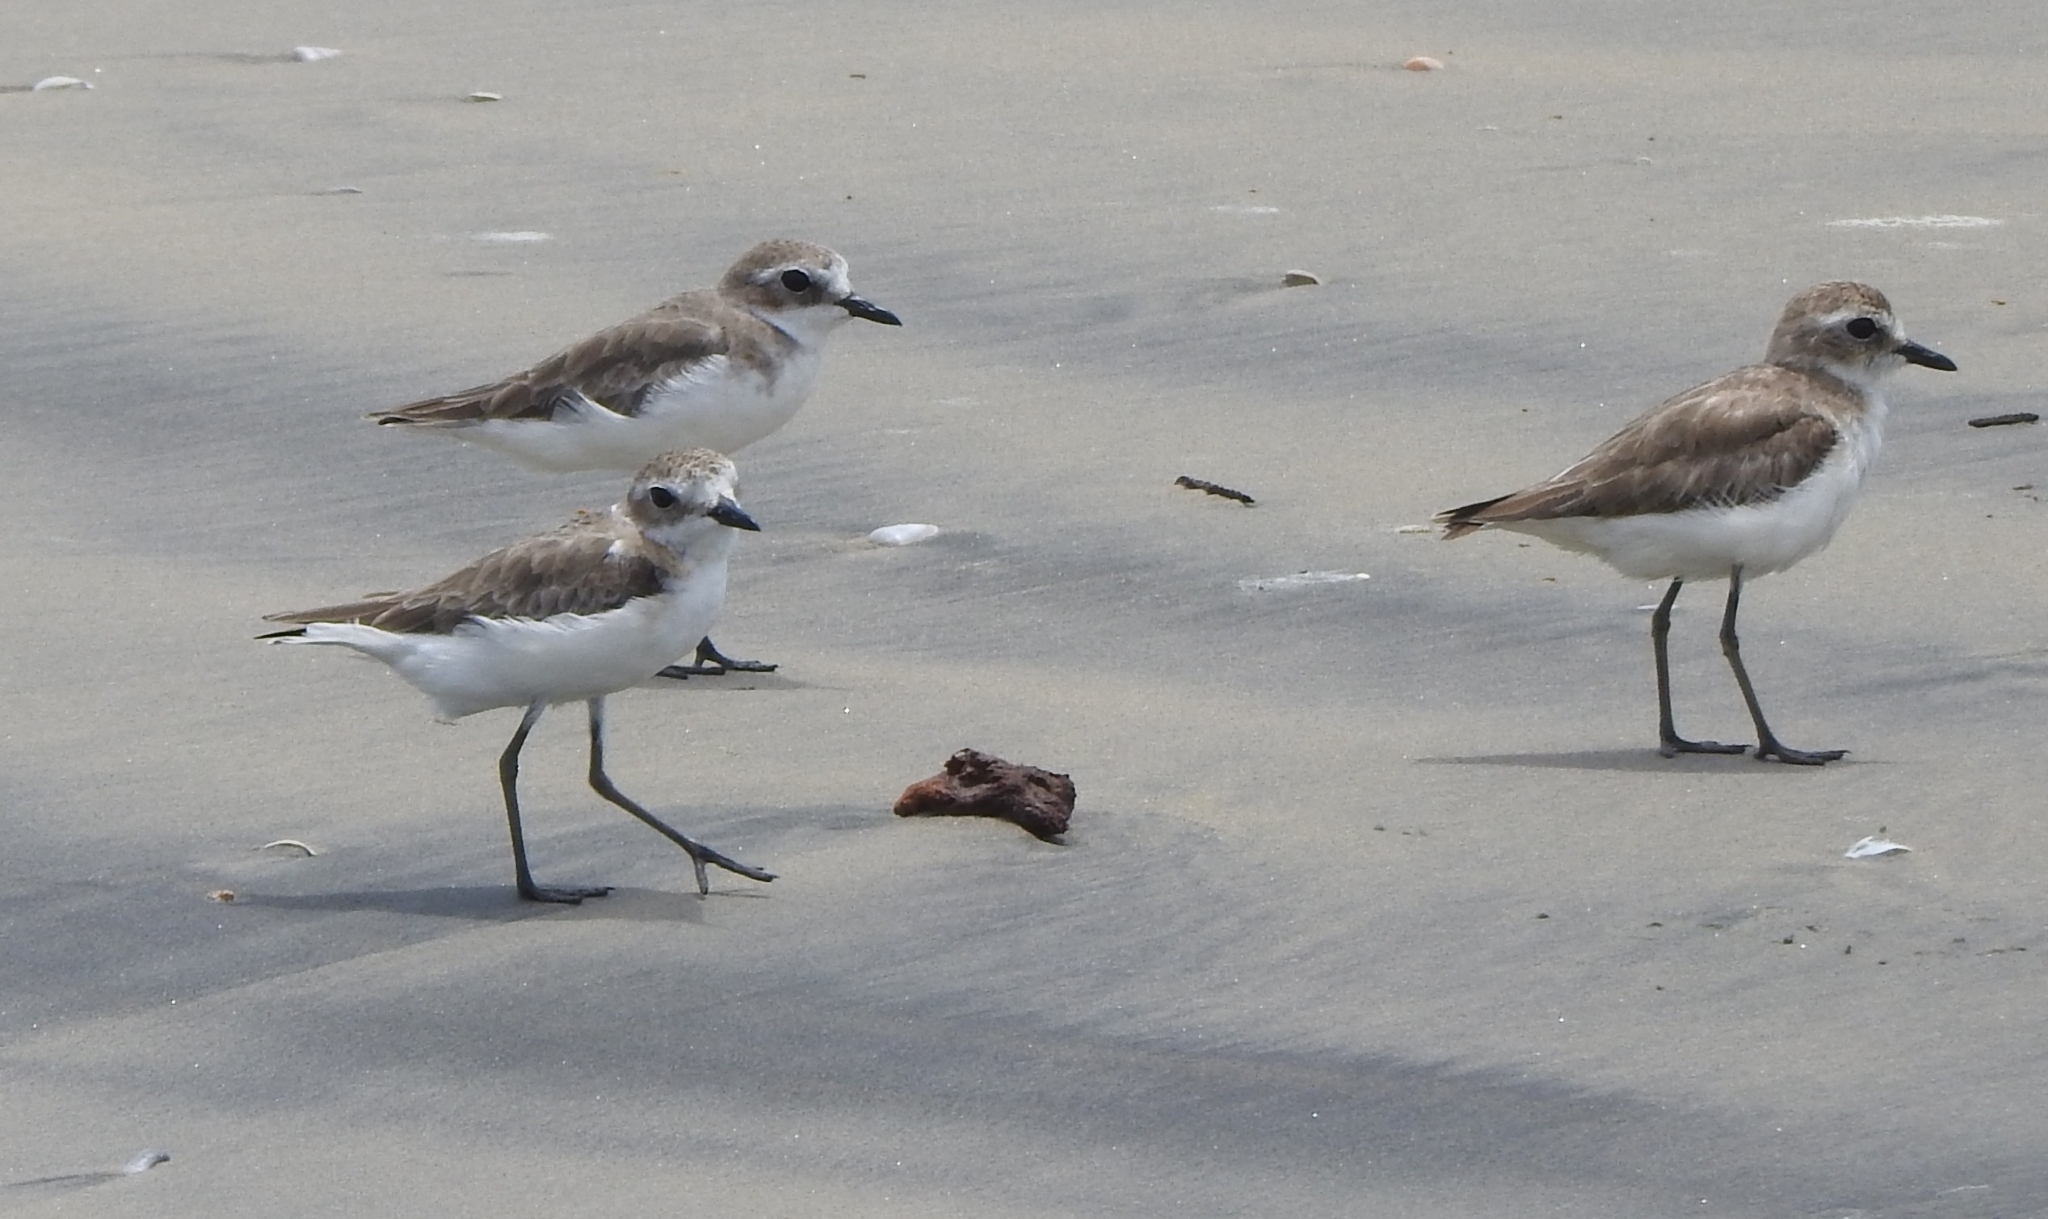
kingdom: Animalia
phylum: Chordata
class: Aves
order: Charadriiformes
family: Charadriidae
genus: Anarhynchus
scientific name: Anarhynchus
